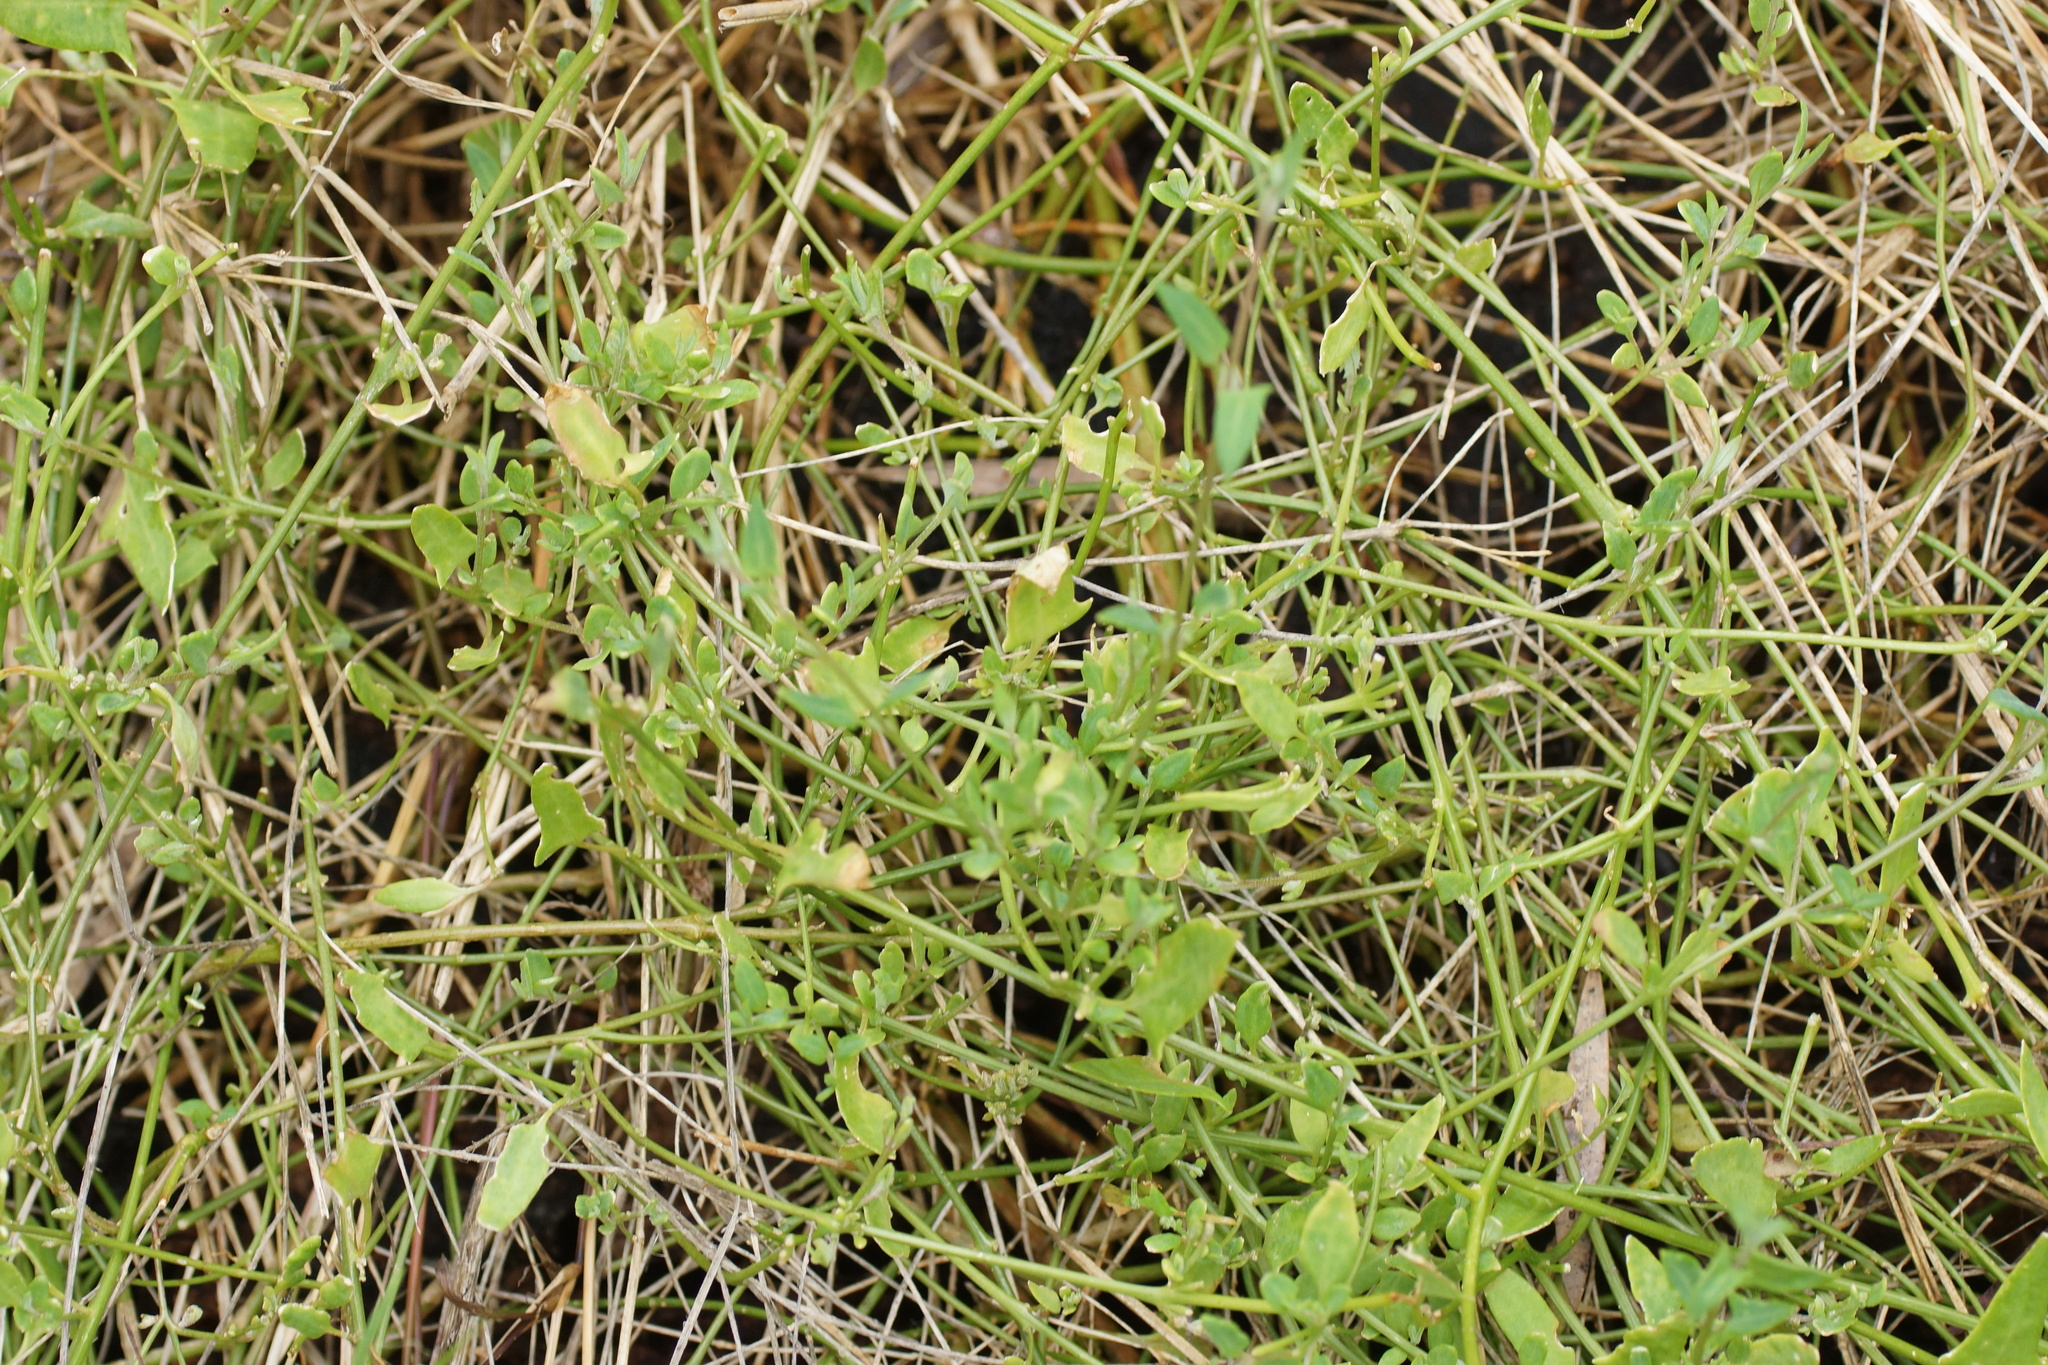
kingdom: Plantae
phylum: Tracheophyta
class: Magnoliopsida
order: Caryophyllales
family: Amaranthaceae
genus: Chenopodium
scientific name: Chenopodium nutans
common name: Climbing-saltbush
